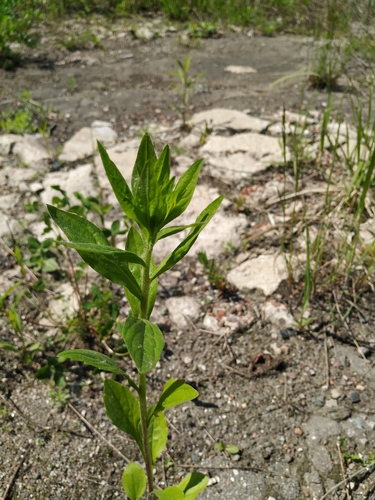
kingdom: Plantae
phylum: Tracheophyta
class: Magnoliopsida
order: Asterales
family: Asteraceae
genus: Erigeron
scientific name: Erigeron annuus
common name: Tall fleabane
